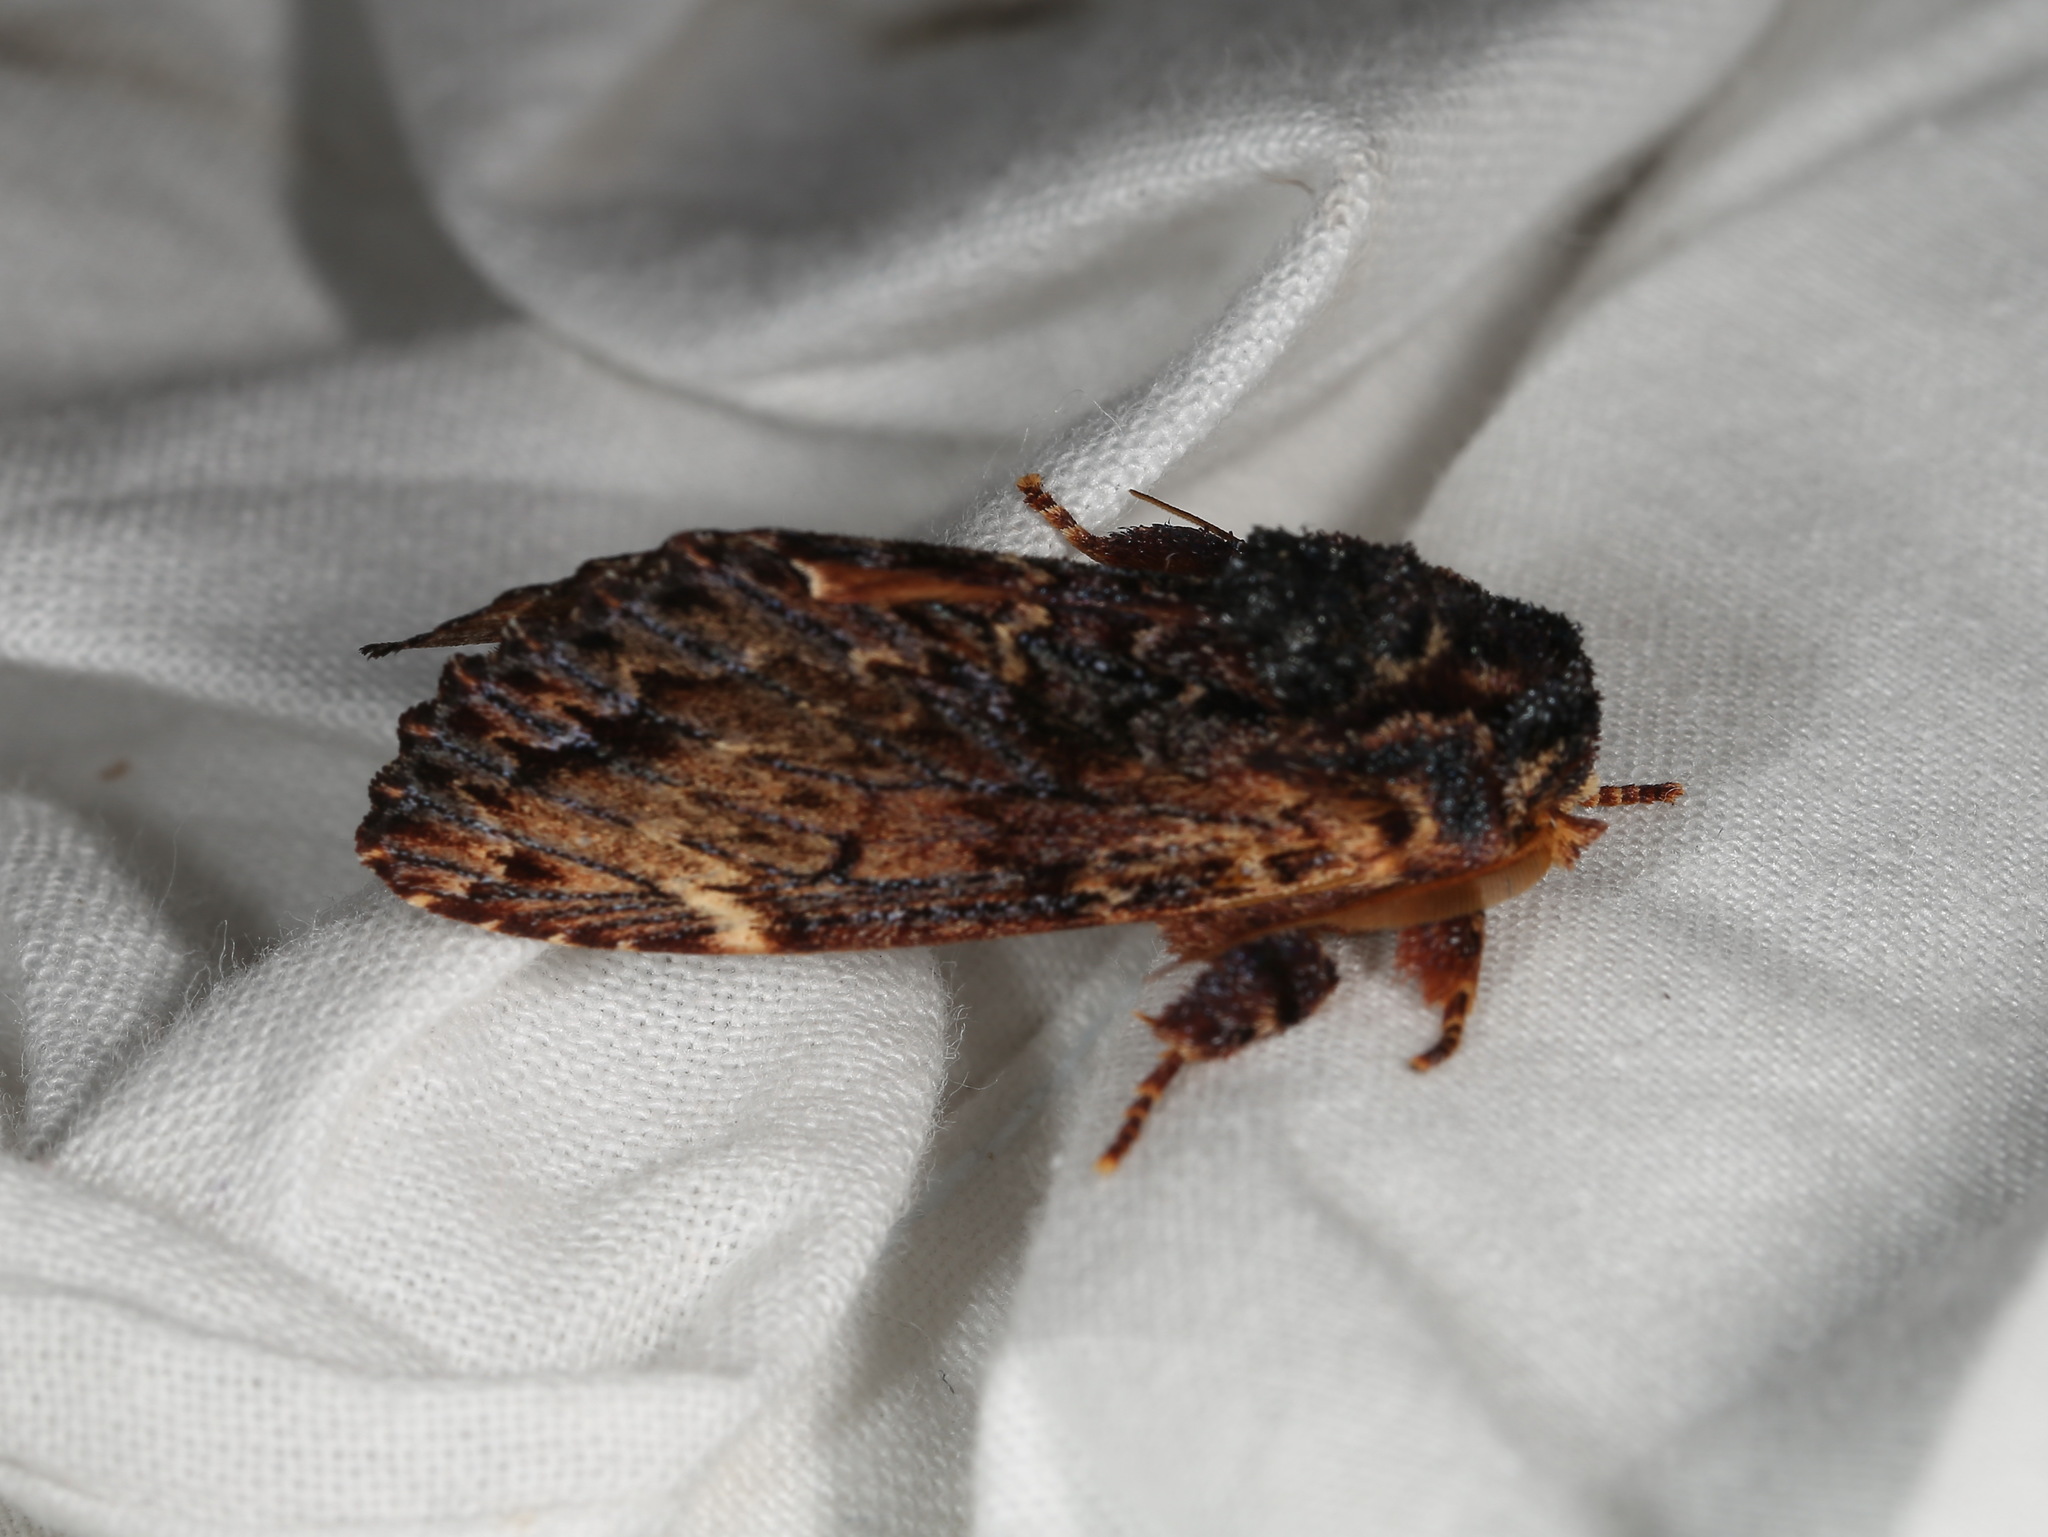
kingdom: Animalia
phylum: Arthropoda
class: Insecta
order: Lepidoptera
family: Notodontidae
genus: Sorama
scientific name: Sorama bicolor
